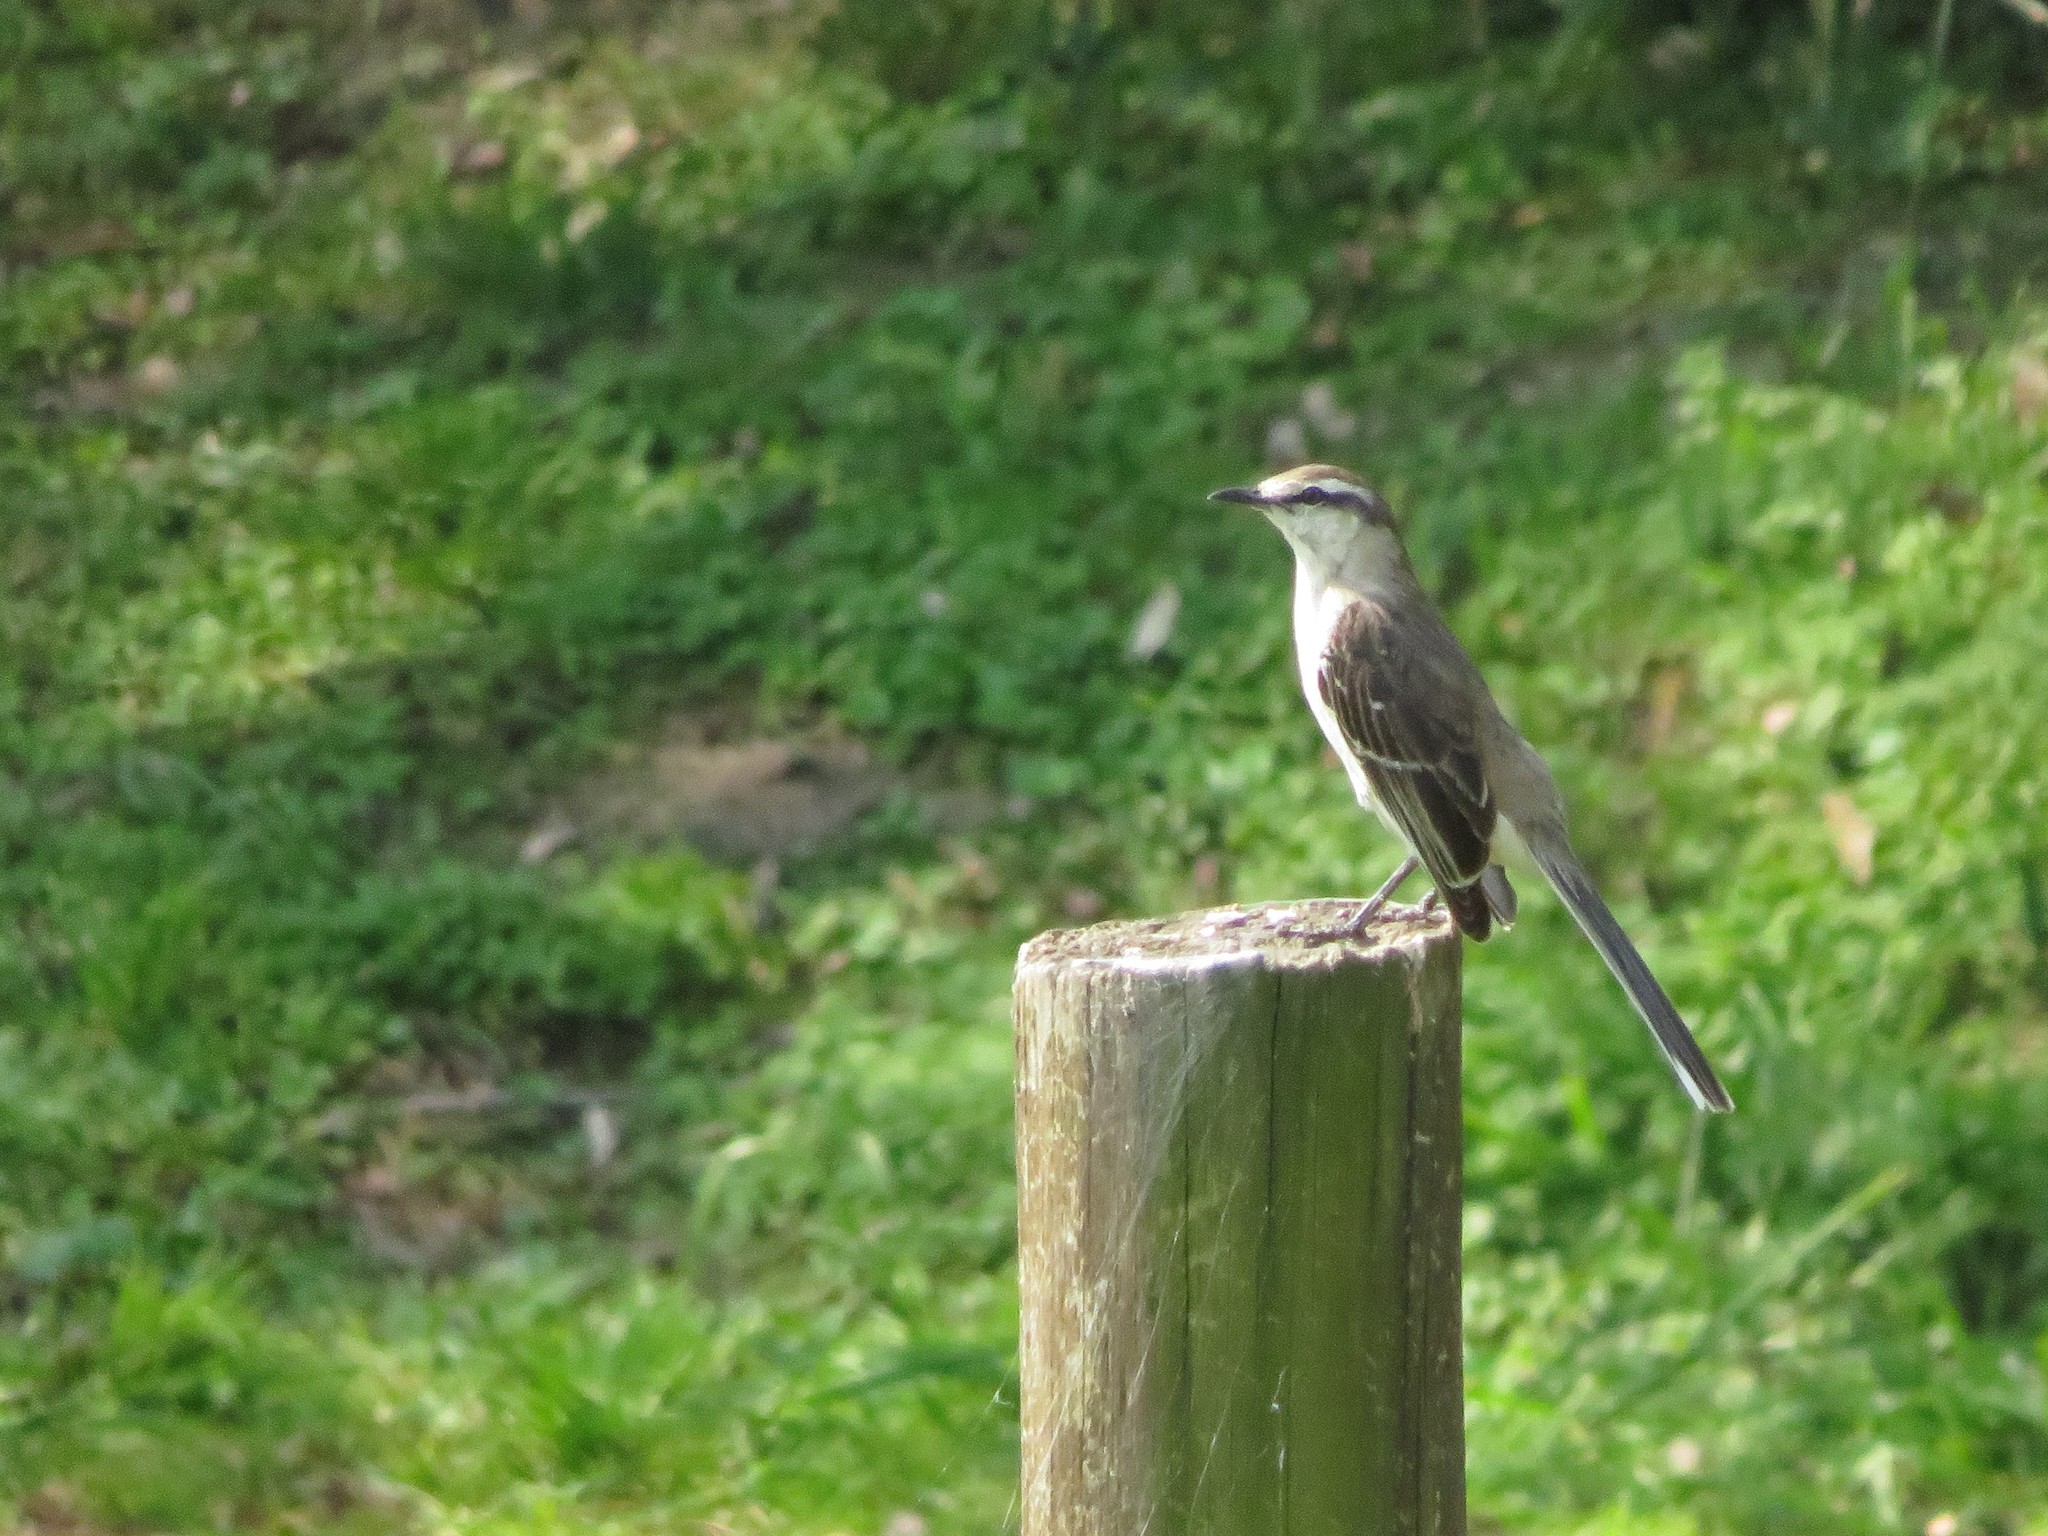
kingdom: Animalia
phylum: Chordata
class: Aves
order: Passeriformes
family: Mimidae
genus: Mimus
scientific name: Mimus saturninus
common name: Chalk-browed mockingbird
